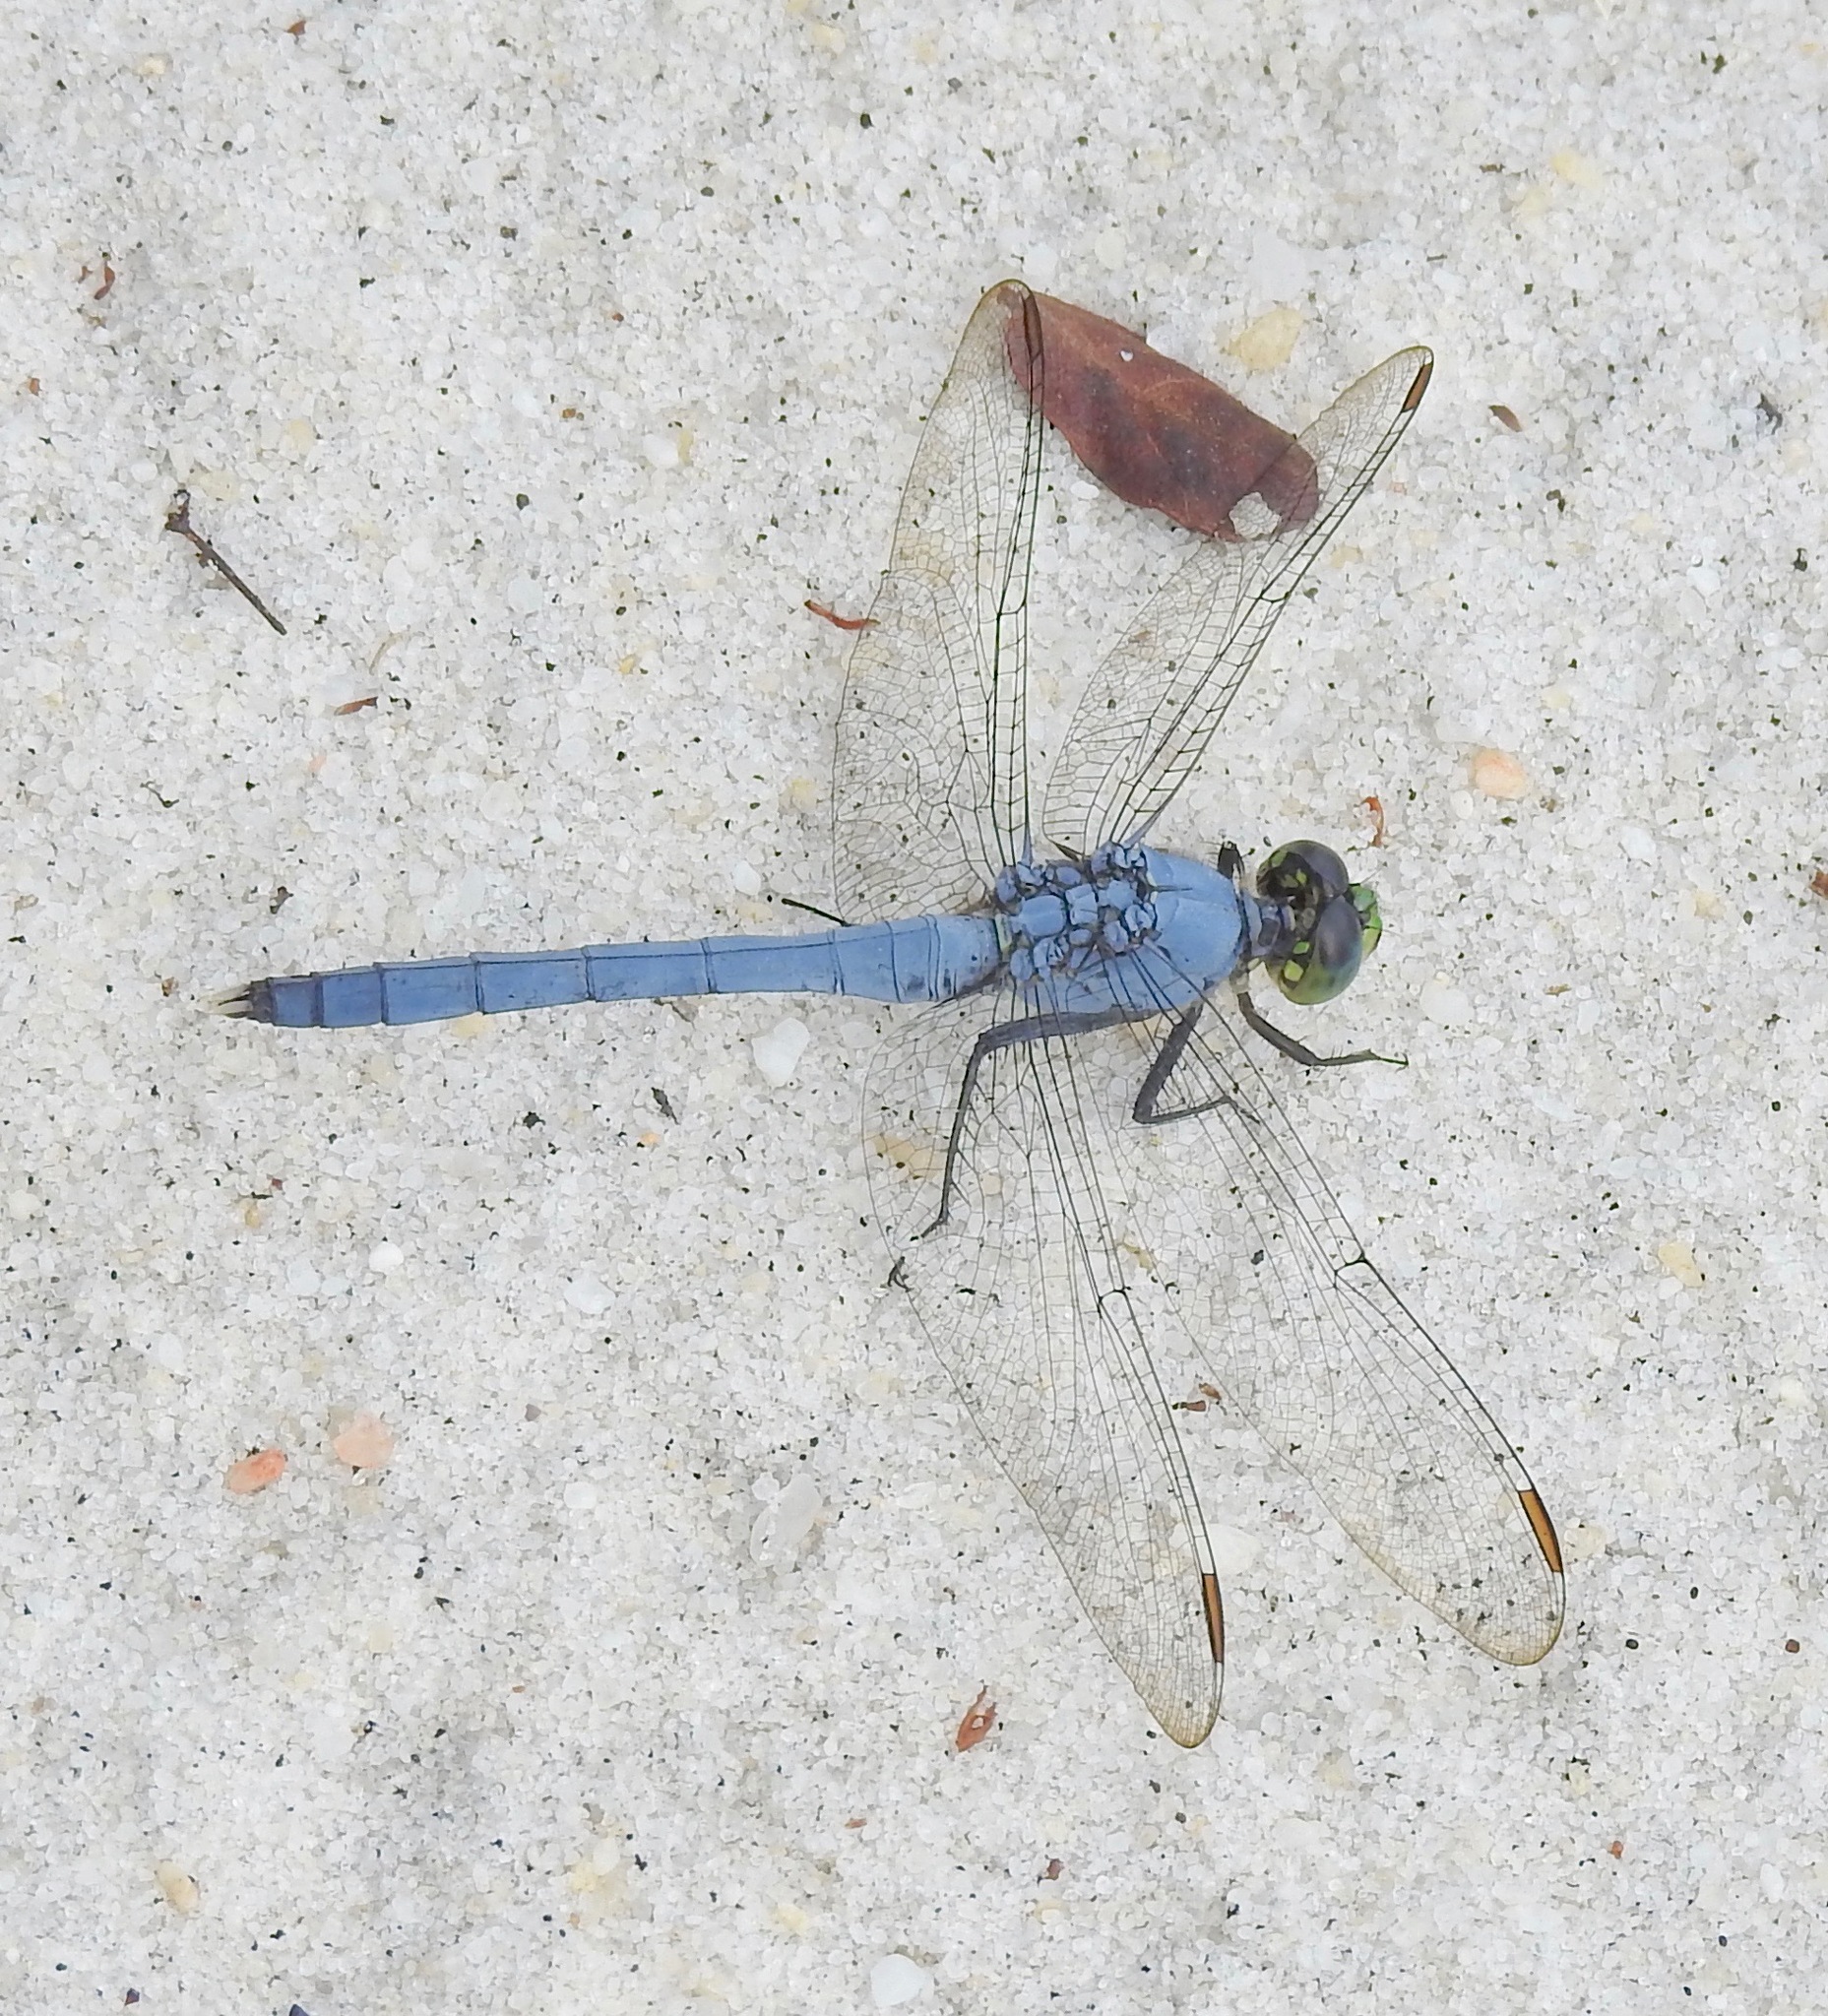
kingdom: Animalia
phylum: Arthropoda
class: Insecta
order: Odonata
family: Libellulidae
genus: Erythemis
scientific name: Erythemis simplicicollis
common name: Eastern pondhawk
